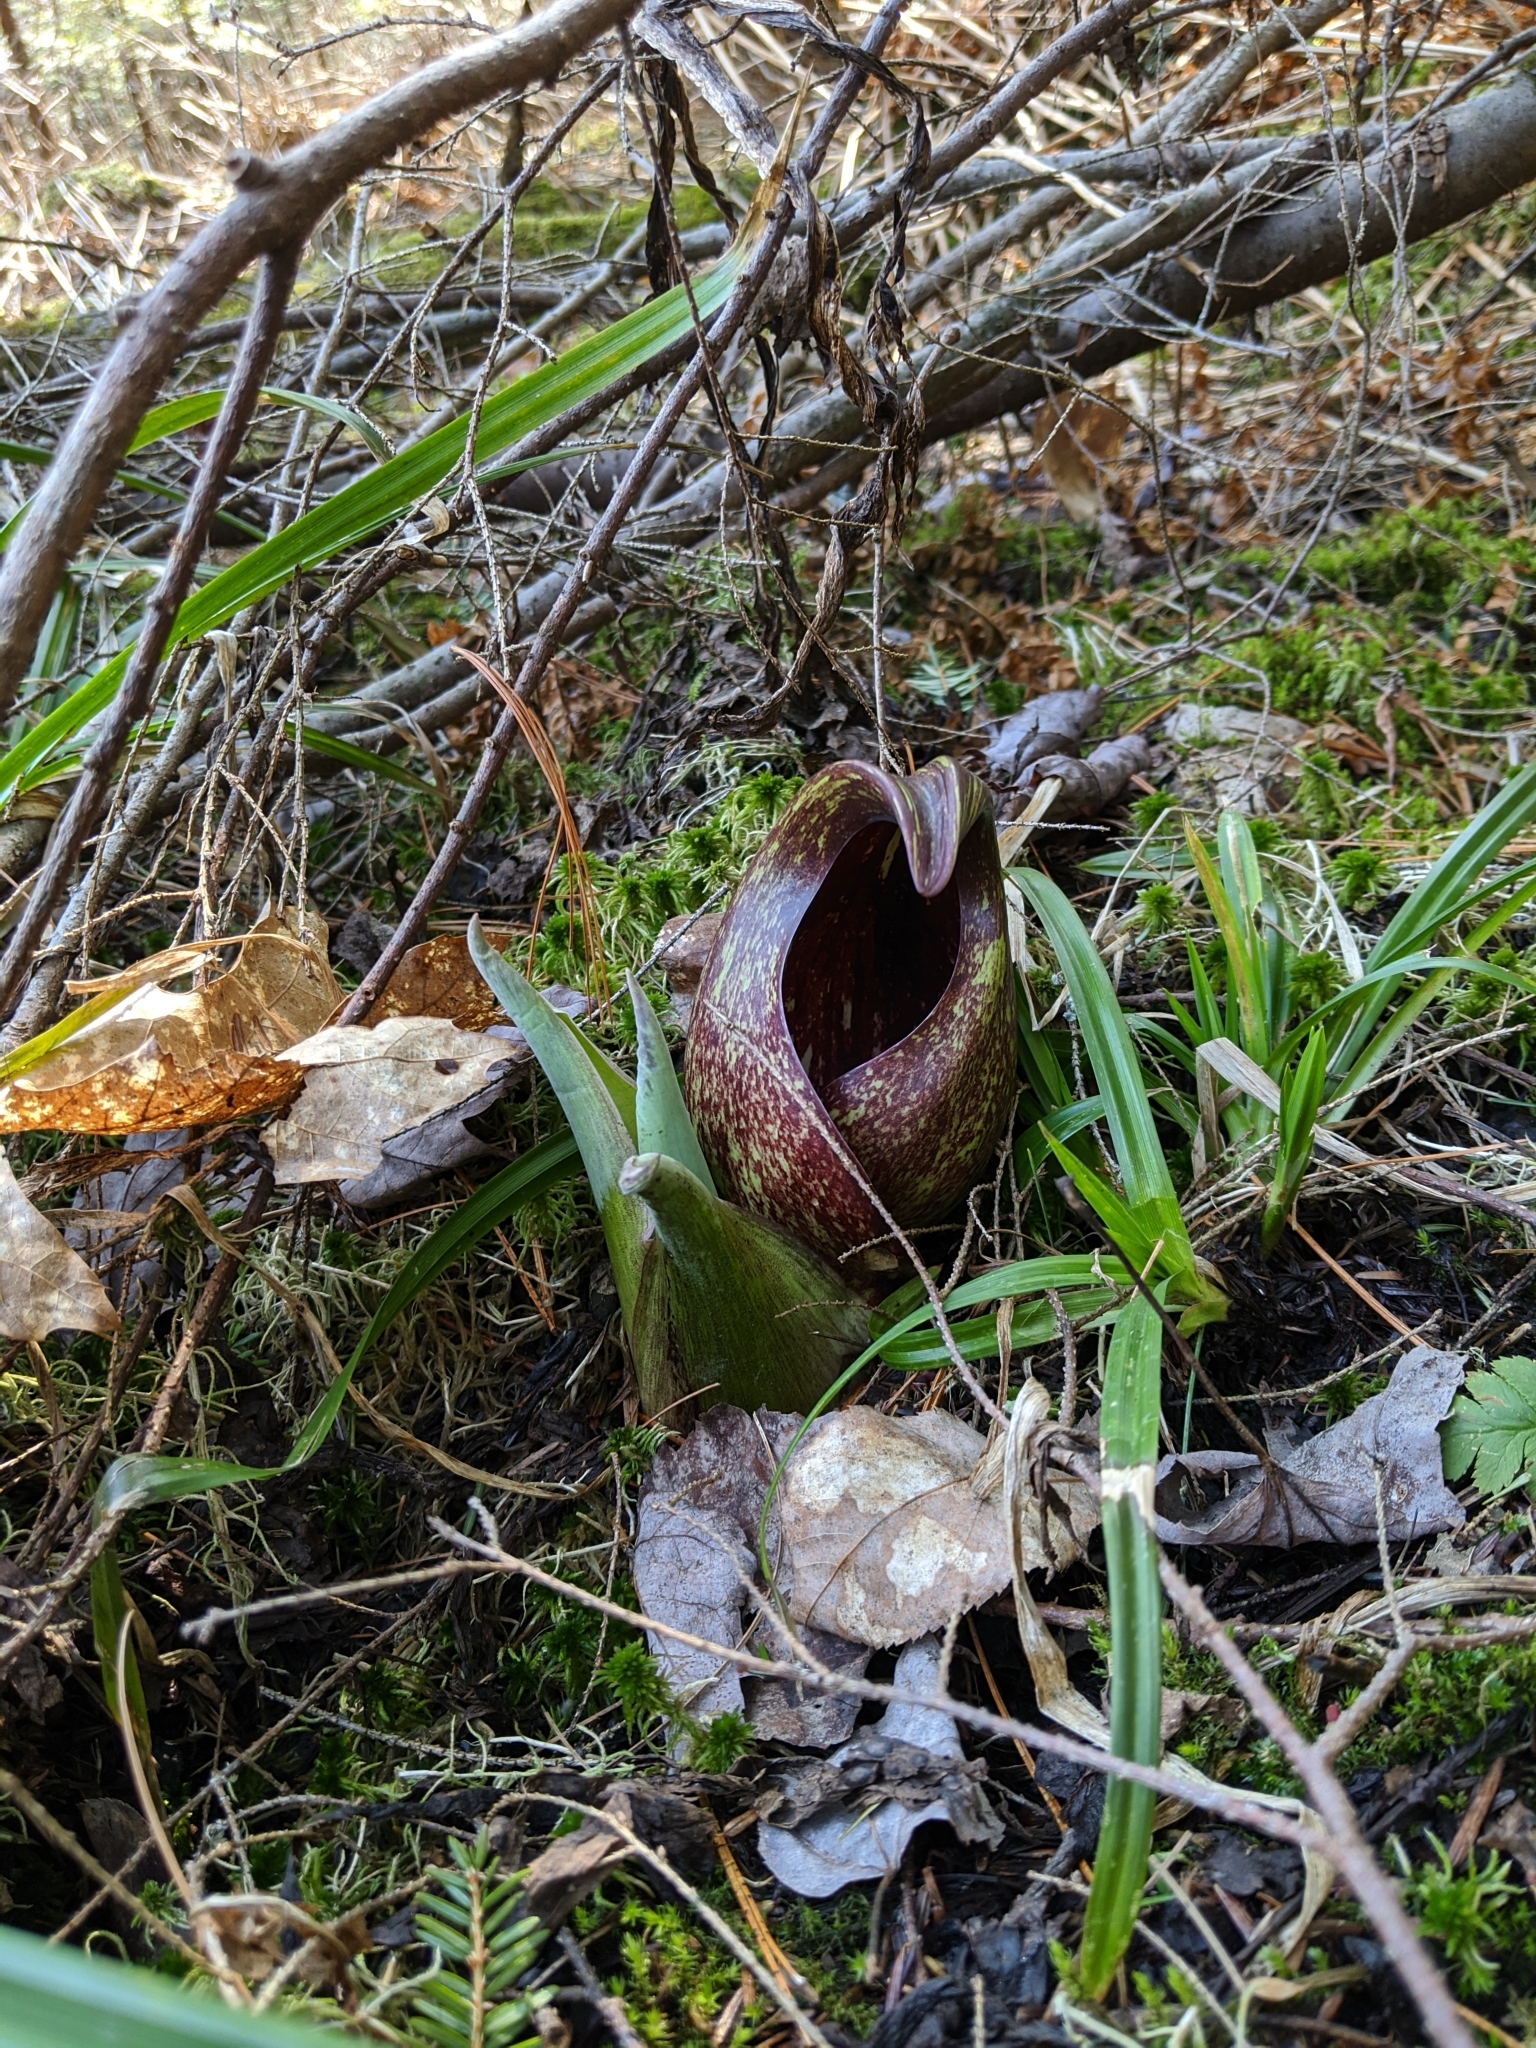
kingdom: Plantae
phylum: Tracheophyta
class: Liliopsida
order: Alismatales
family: Araceae
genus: Symplocarpus
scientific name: Symplocarpus foetidus
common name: Eastern skunk cabbage
